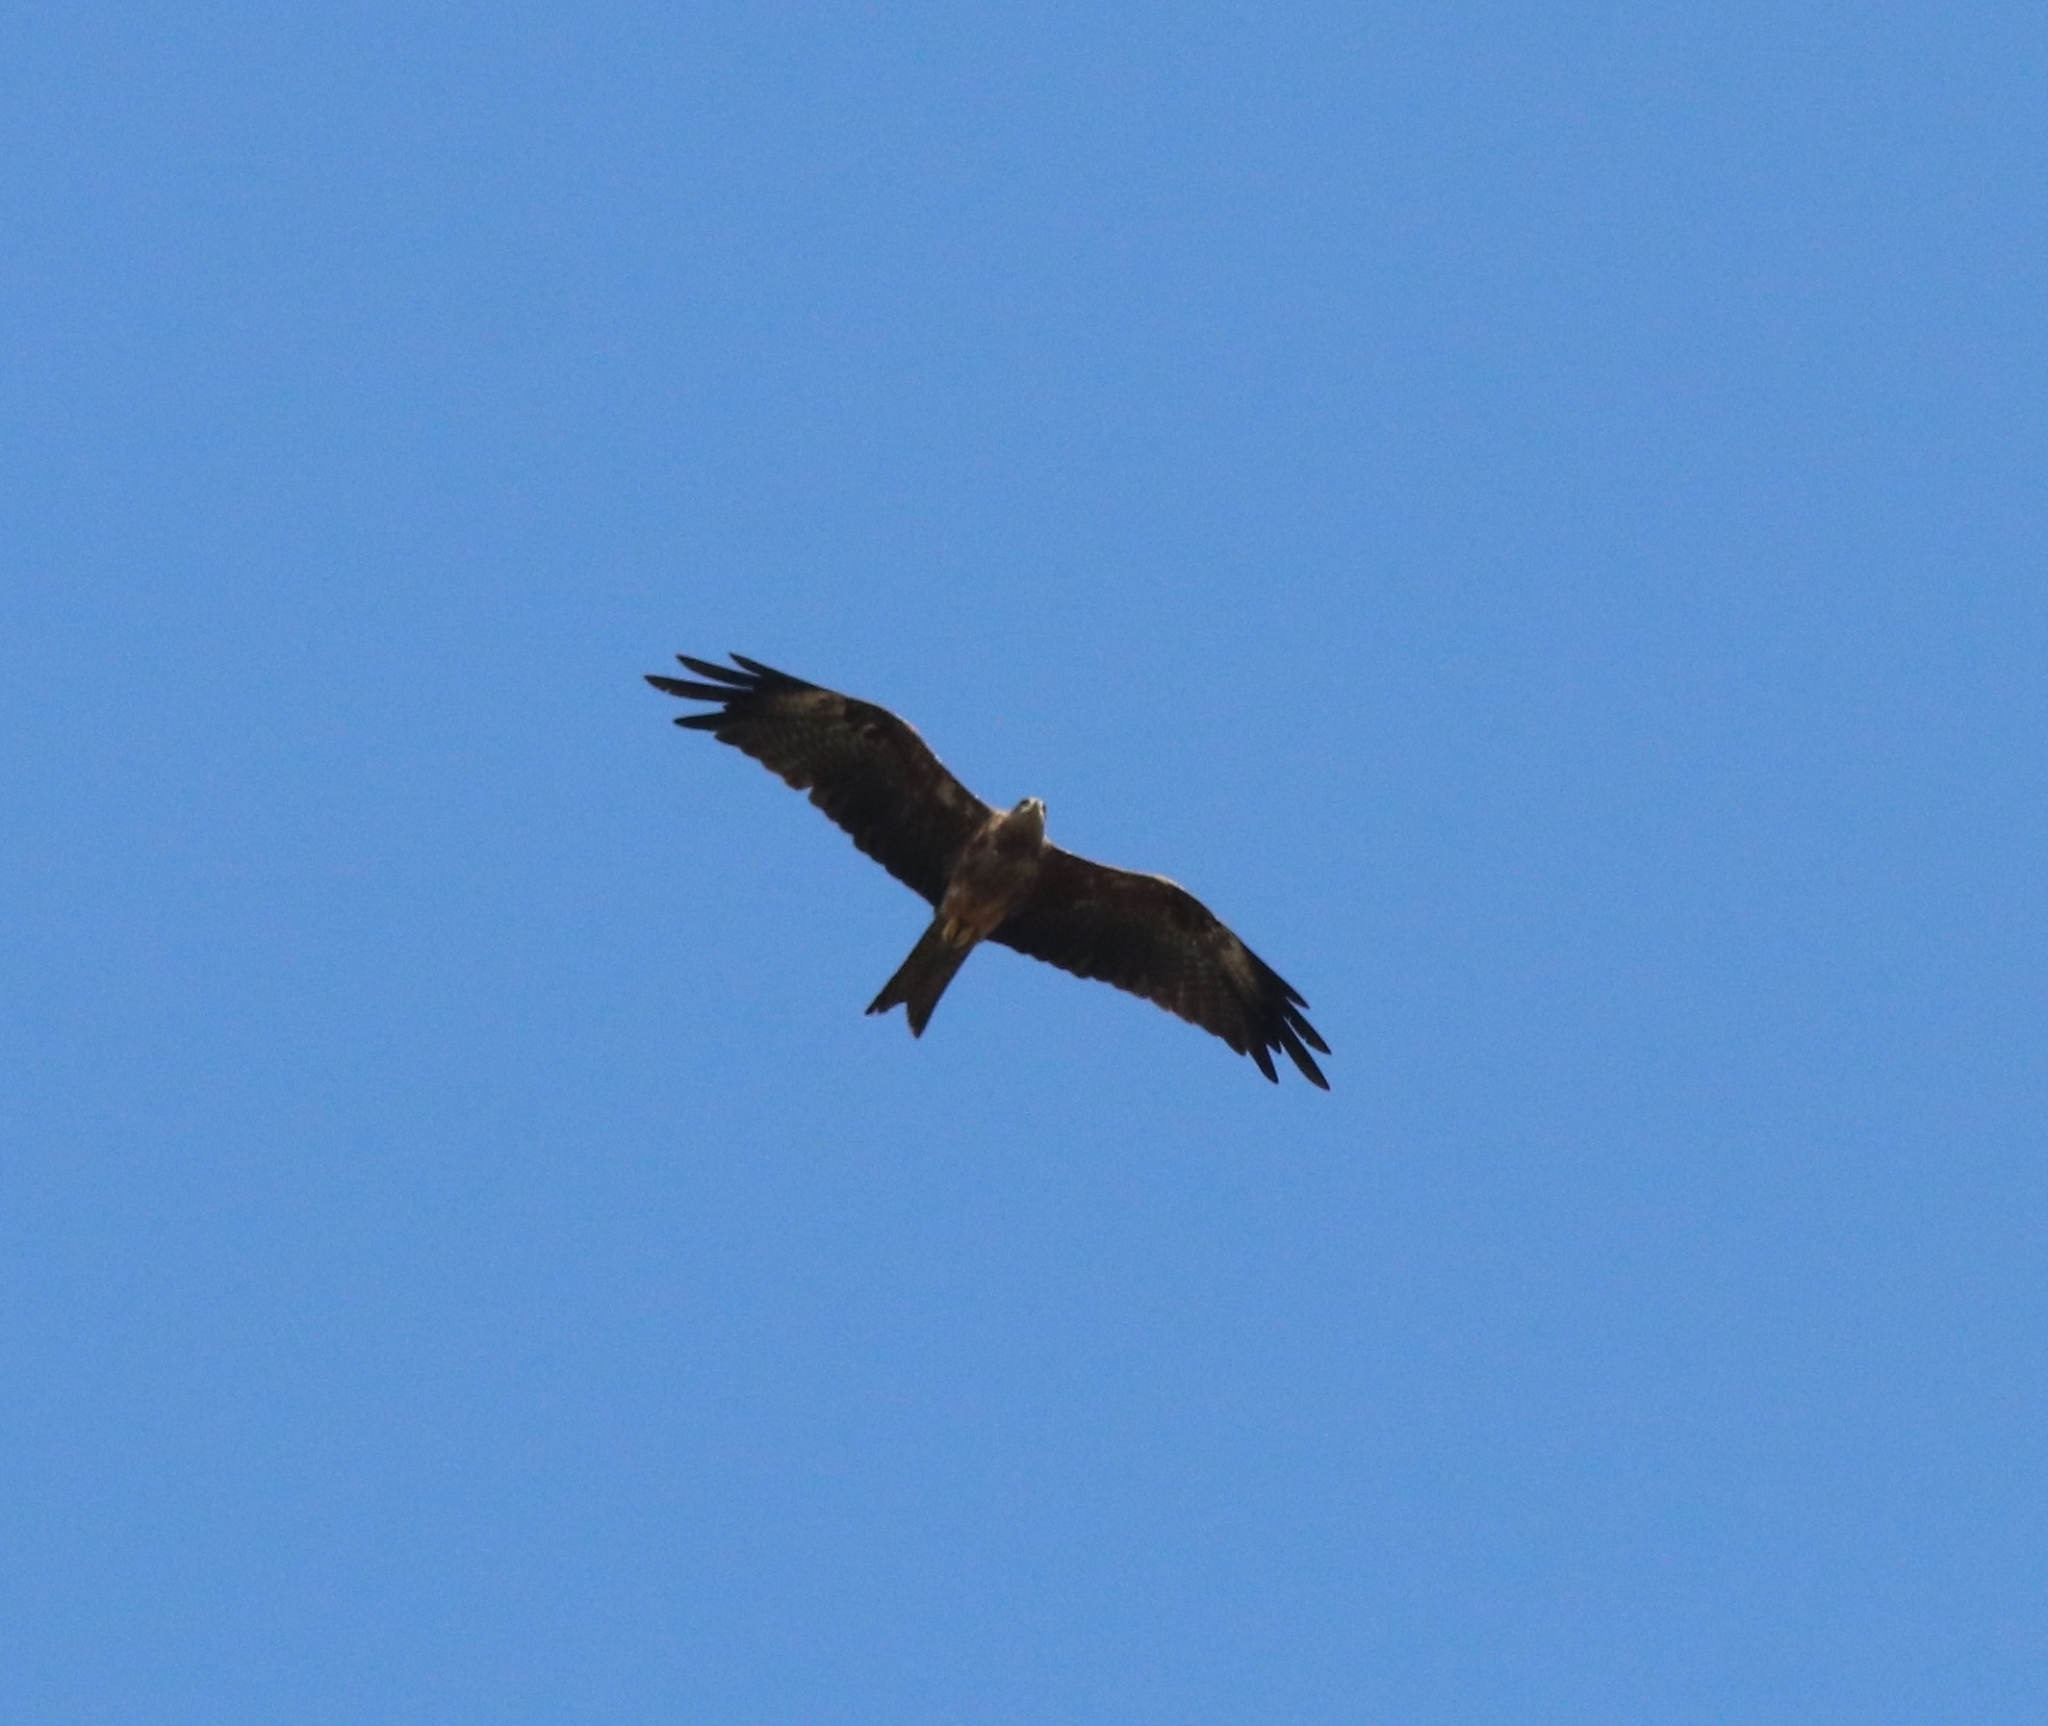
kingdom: Animalia
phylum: Chordata
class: Aves
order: Accipitriformes
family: Accipitridae
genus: Milvus
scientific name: Milvus migrans
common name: Black kite
